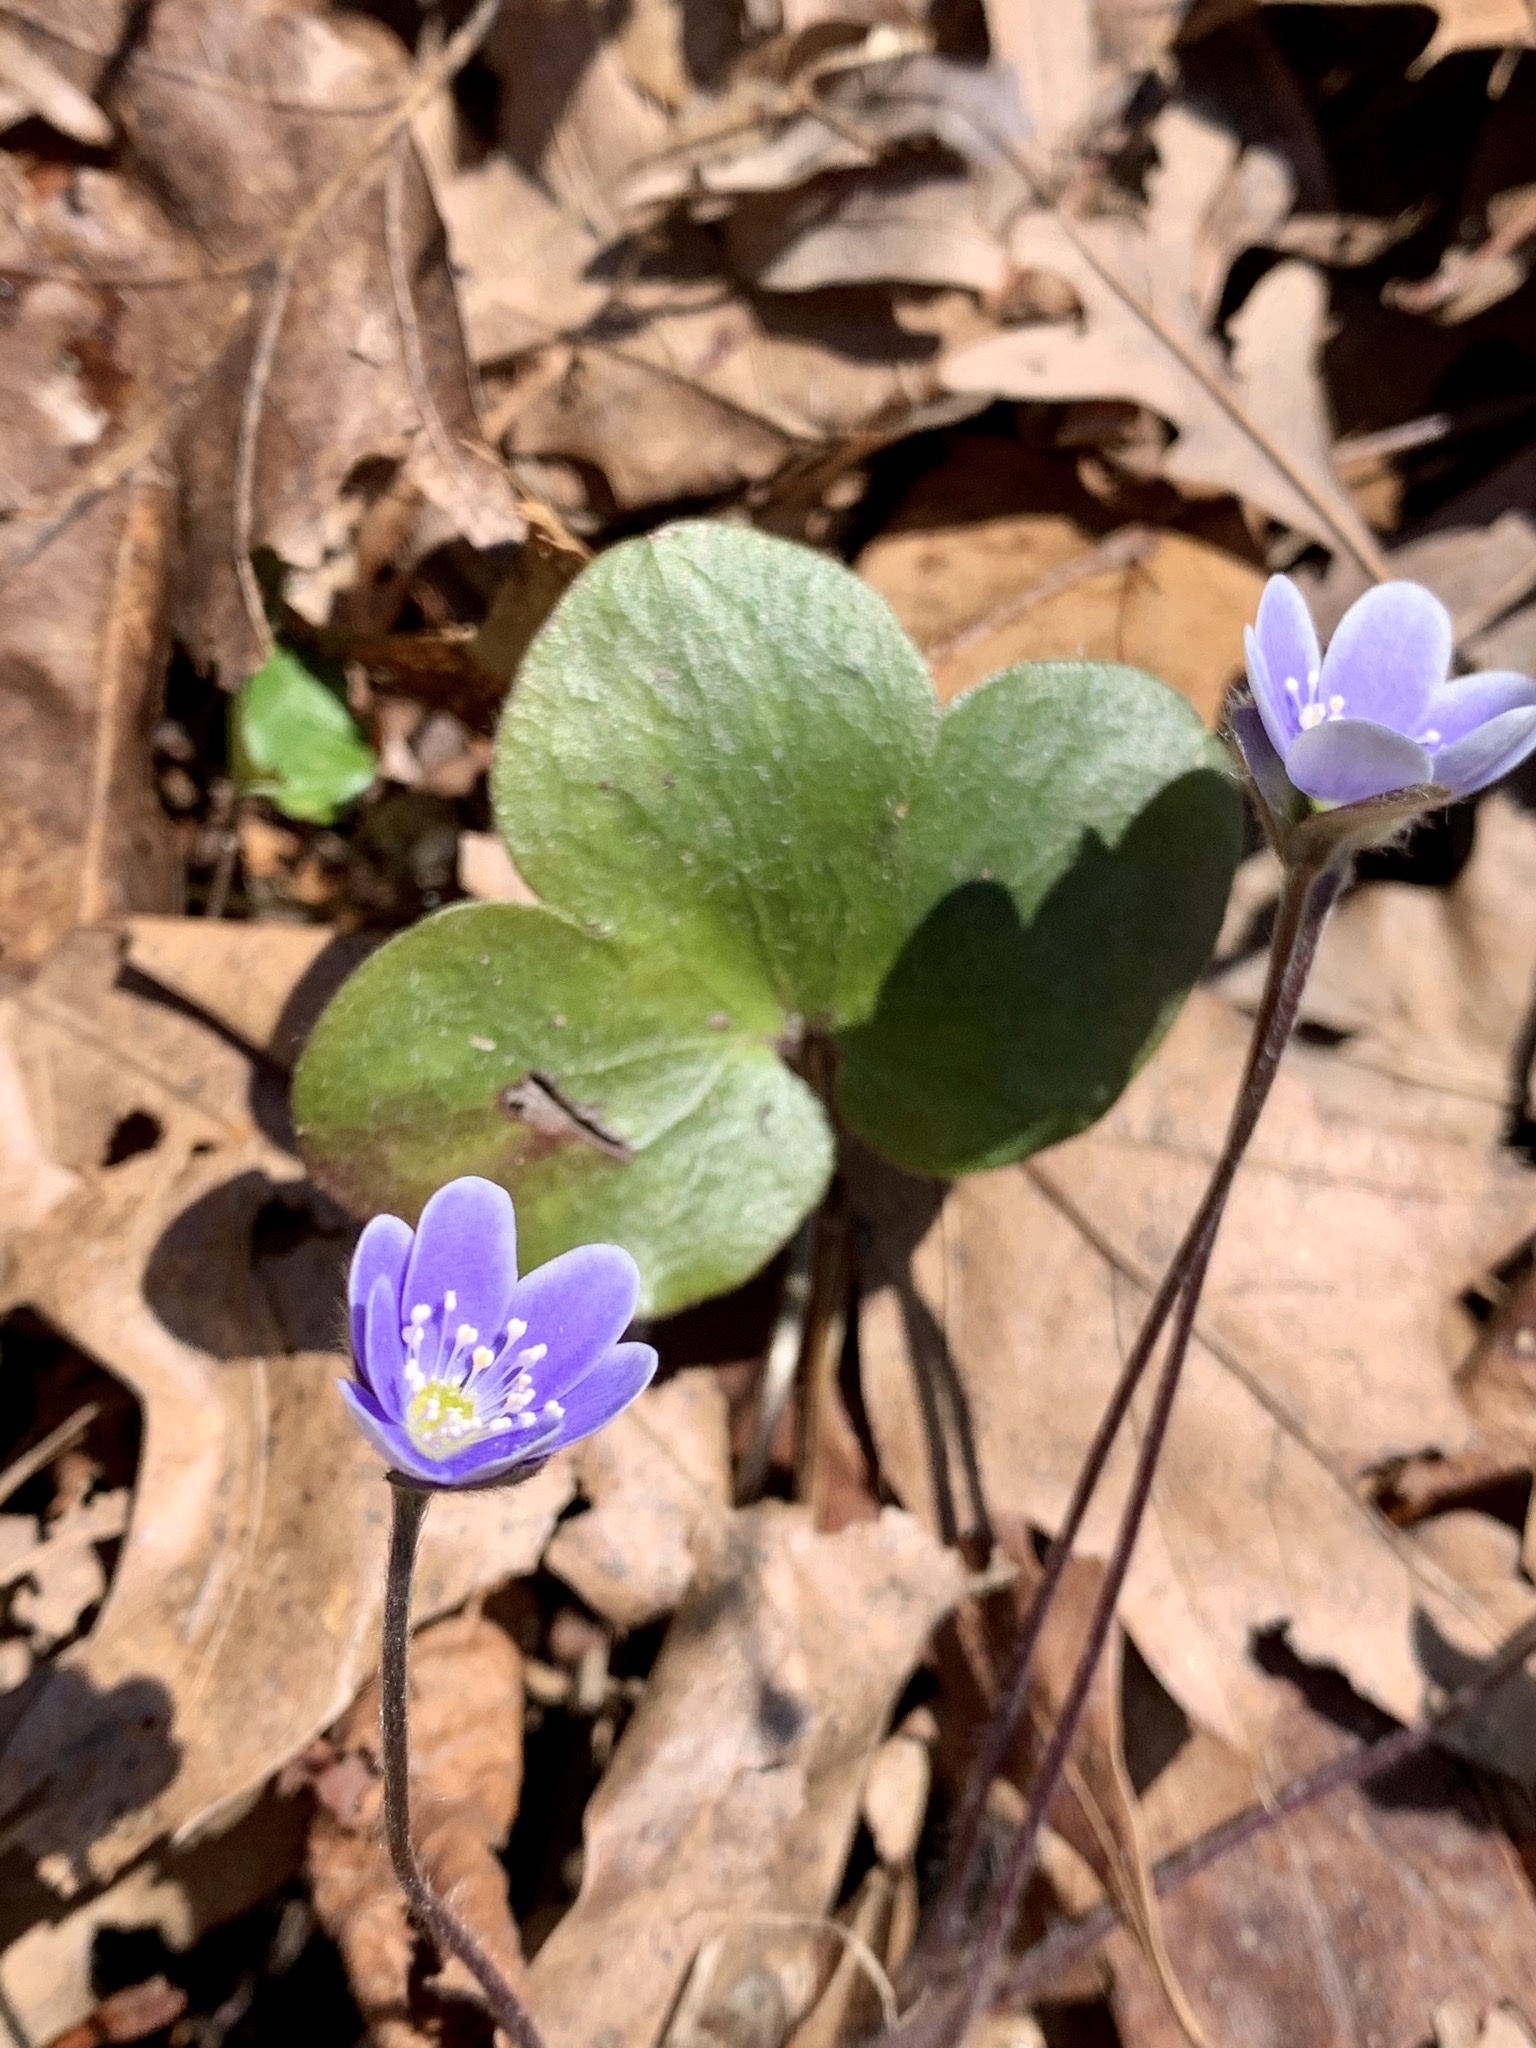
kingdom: Plantae
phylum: Tracheophyta
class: Magnoliopsida
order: Ranunculales
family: Ranunculaceae
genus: Hepatica
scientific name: Hepatica americana
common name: American hepatica
